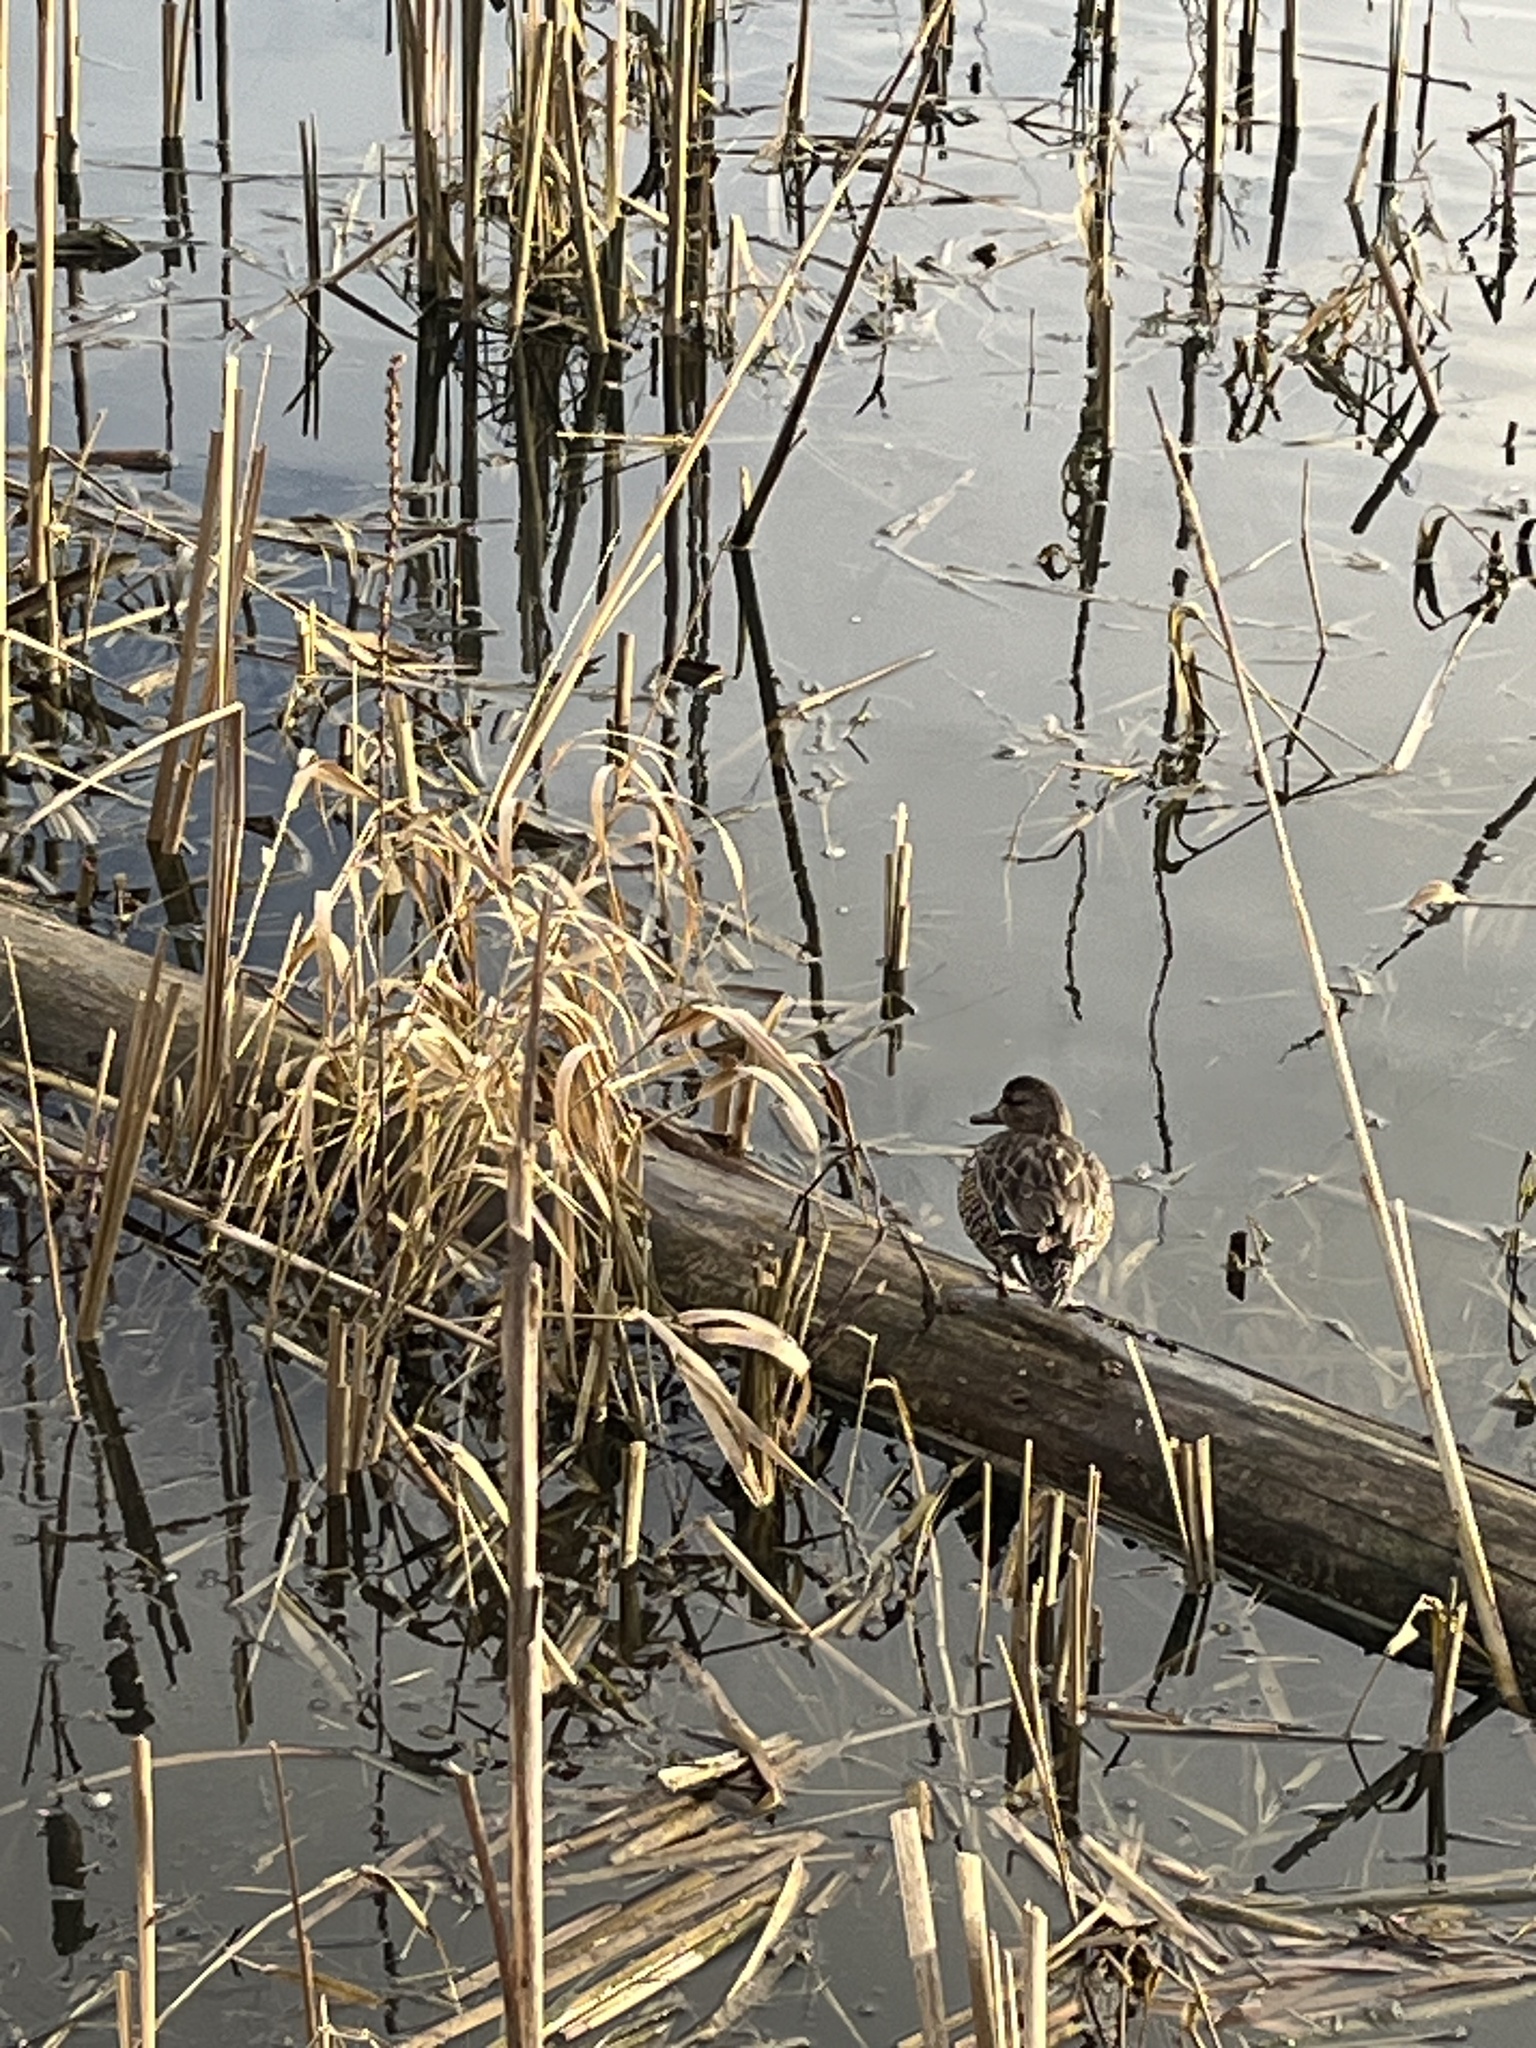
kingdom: Animalia
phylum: Chordata
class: Aves
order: Anseriformes
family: Anatidae
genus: Anas
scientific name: Anas crecca
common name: Eurasian teal
